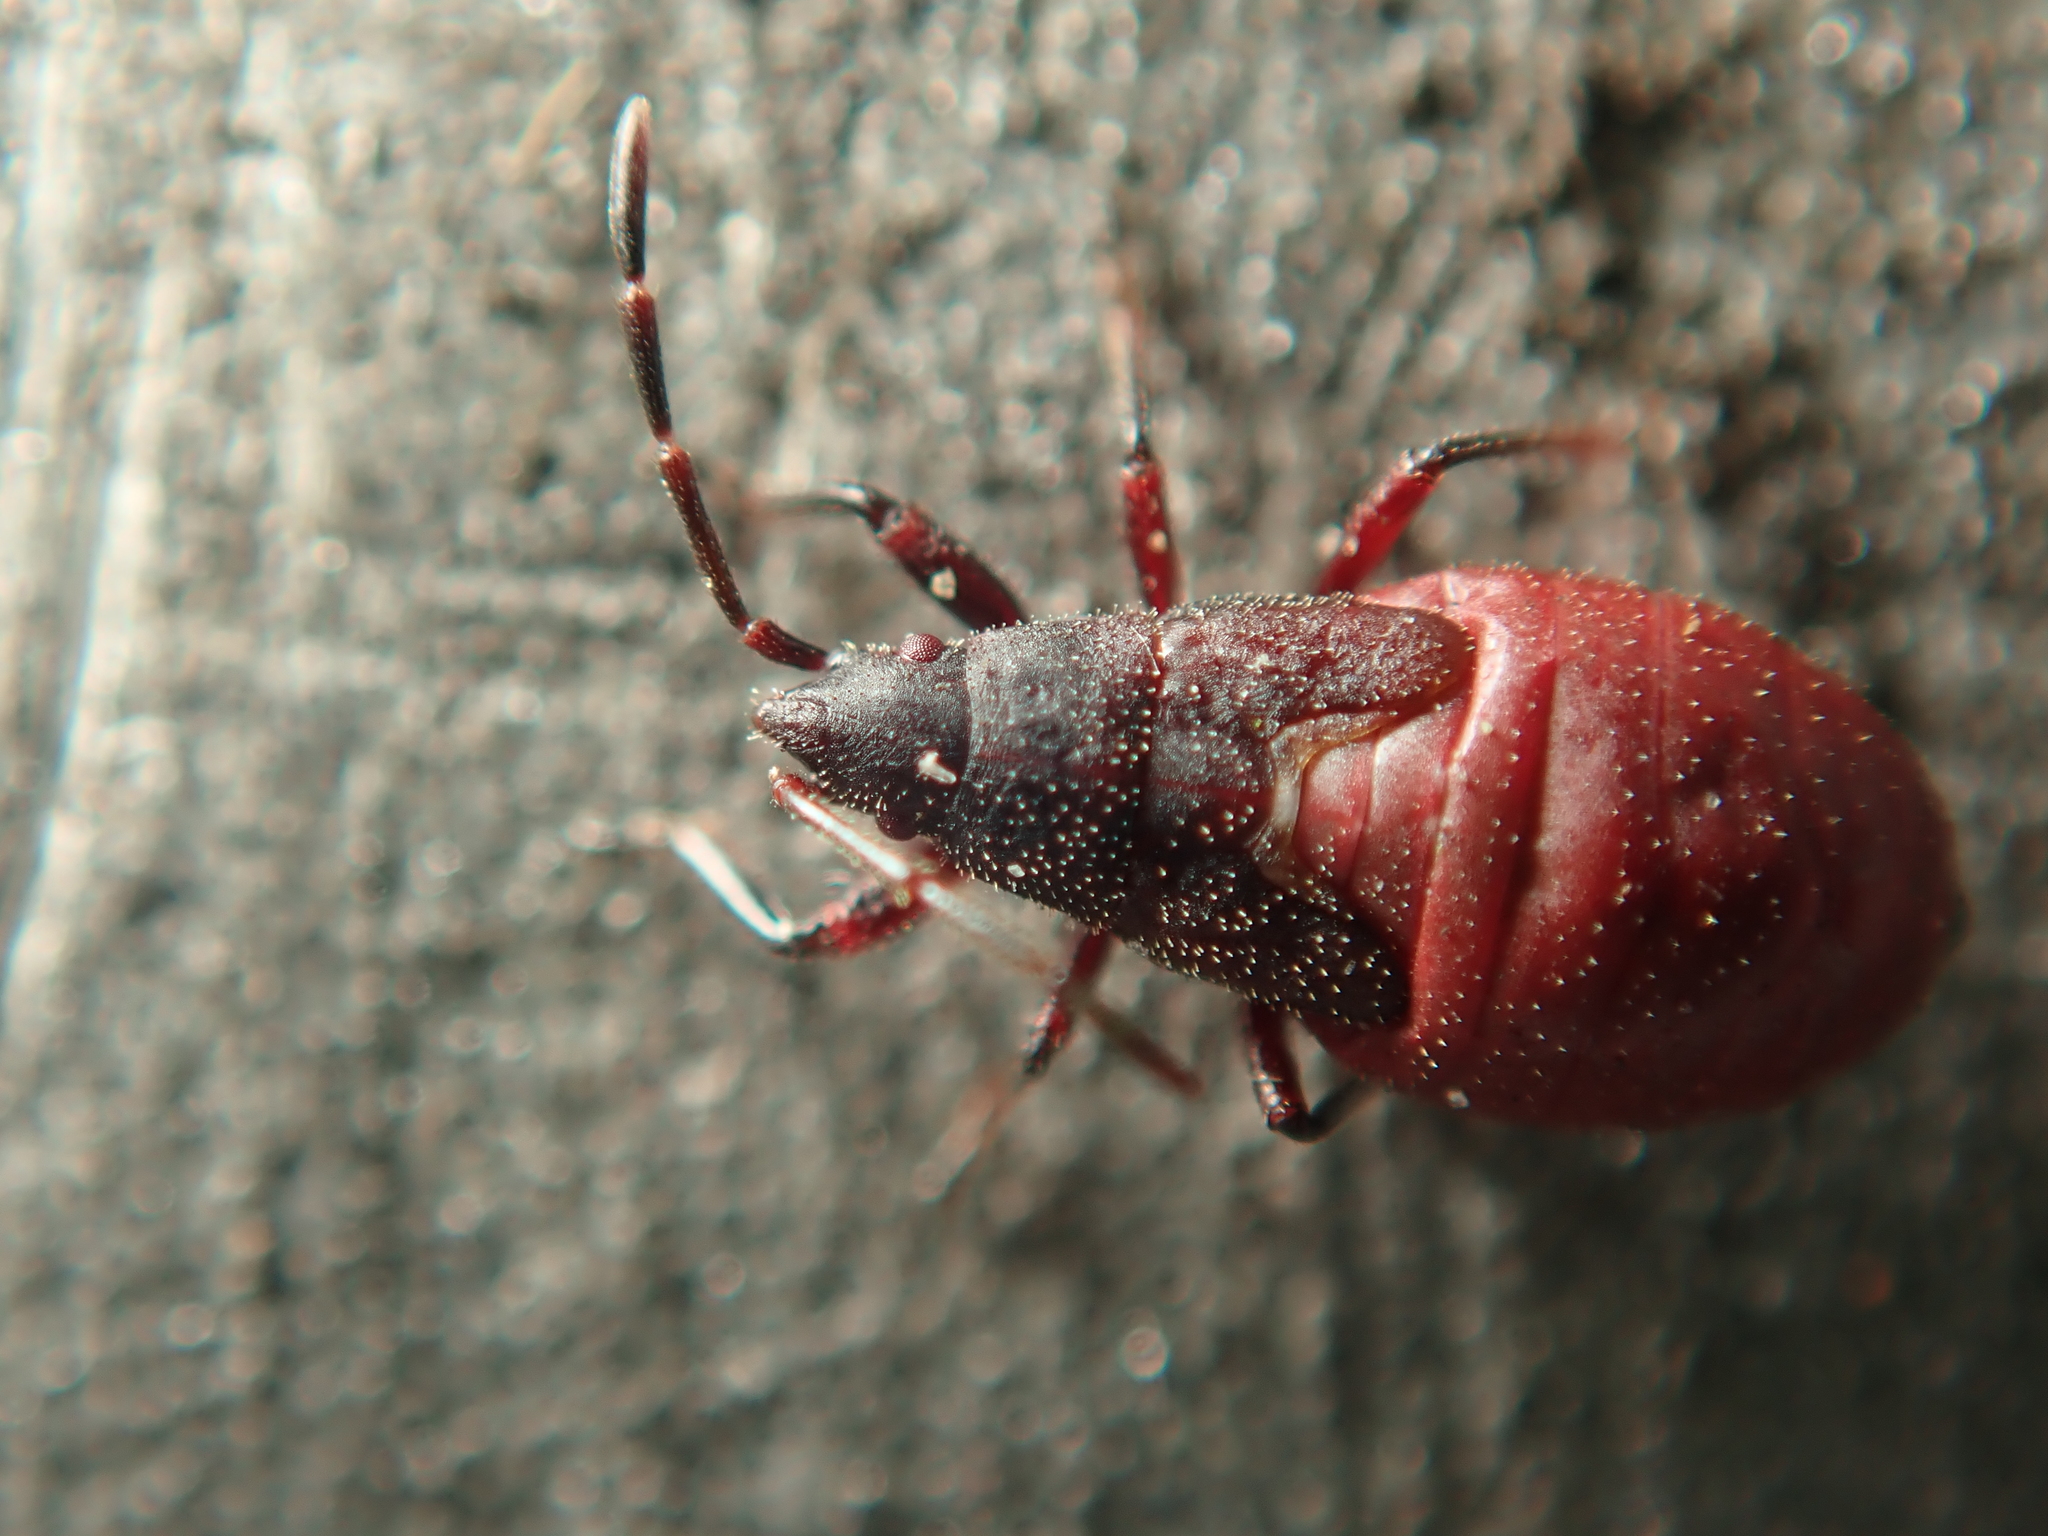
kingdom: Animalia
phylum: Arthropoda
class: Insecta
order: Hemiptera
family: Oxycarenidae
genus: Oxycarenus
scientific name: Oxycarenus lavaterae
